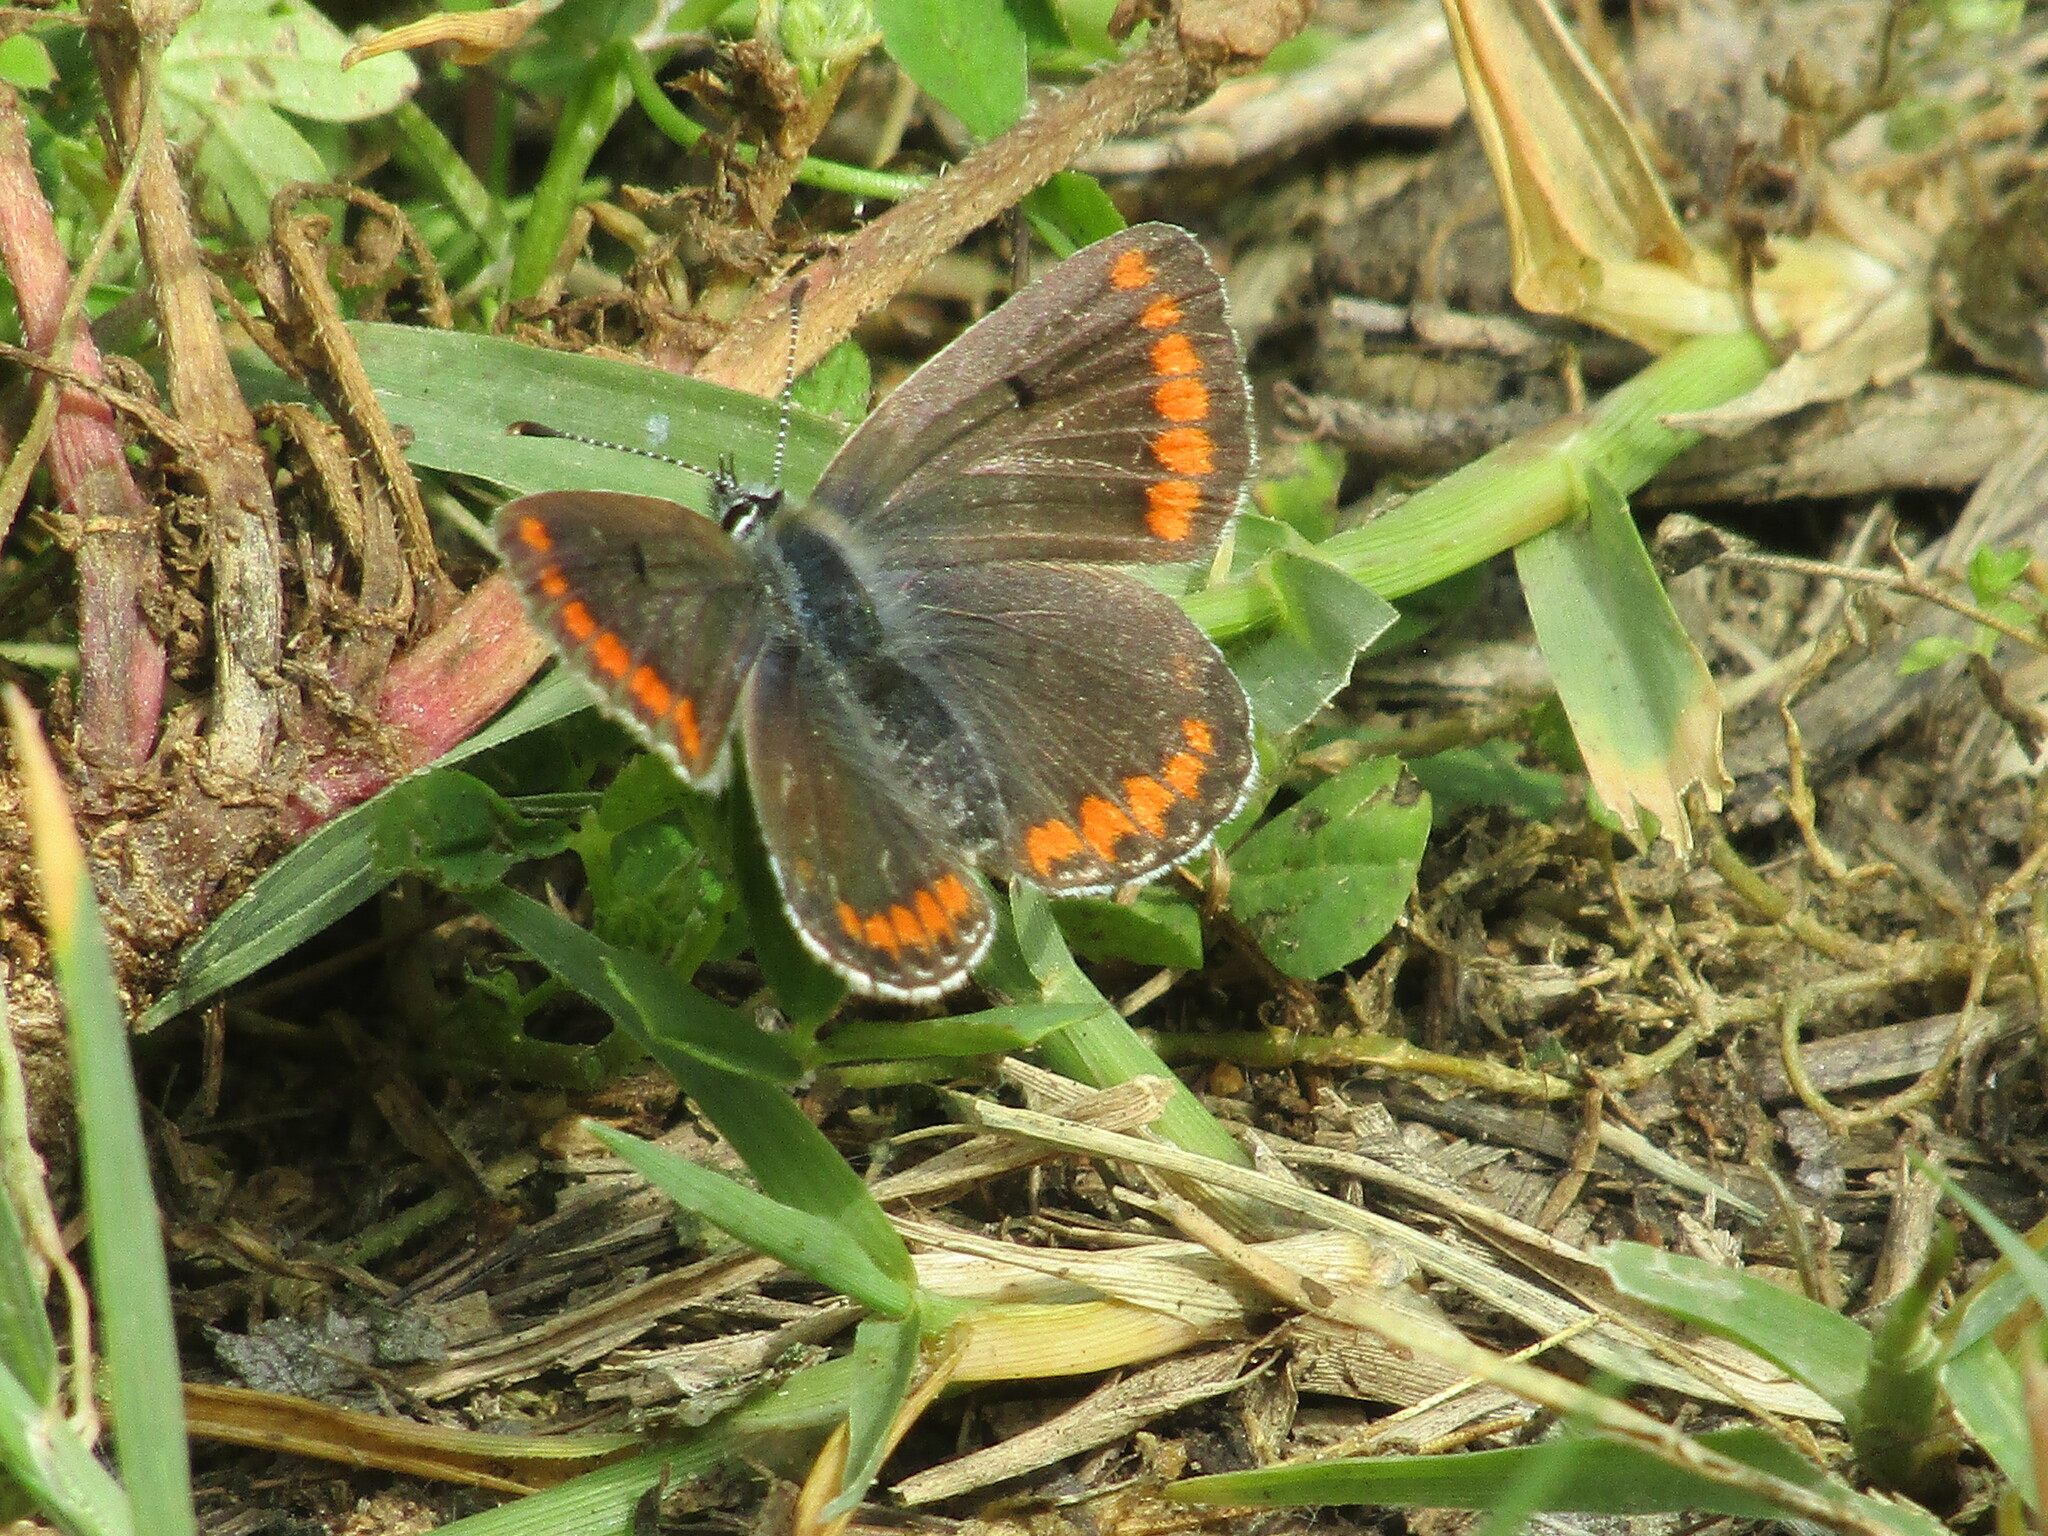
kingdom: Animalia
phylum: Arthropoda
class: Insecta
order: Lepidoptera
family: Lycaenidae
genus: Aricia
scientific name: Aricia agestis
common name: Brown argus
